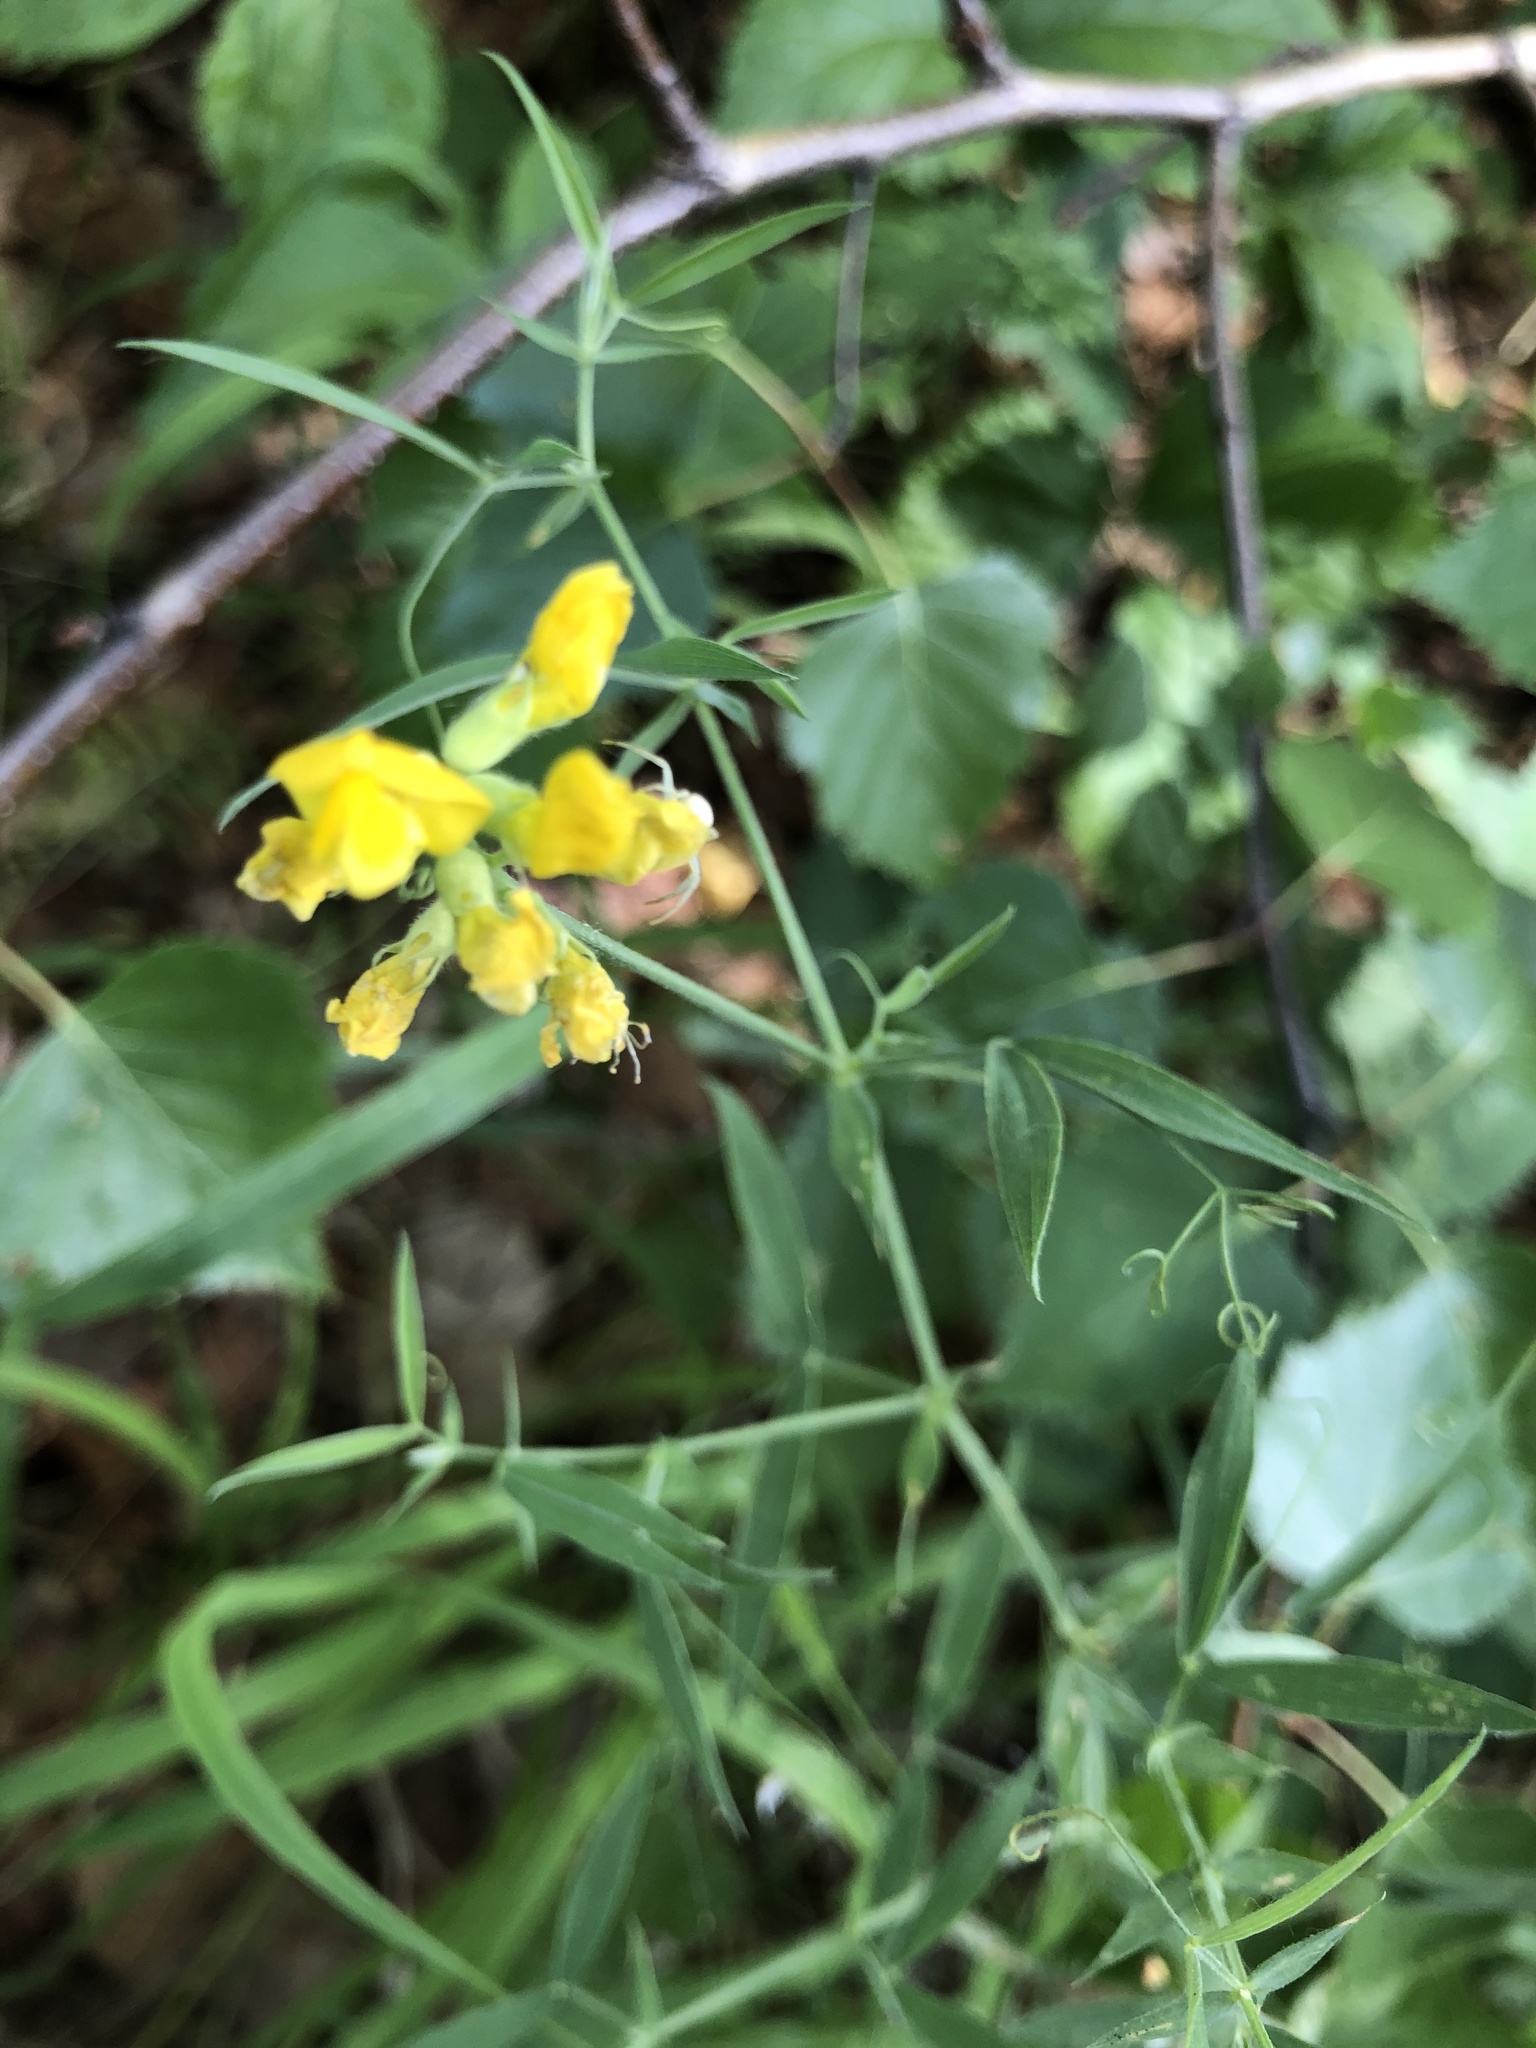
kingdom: Plantae
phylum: Tracheophyta
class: Magnoliopsida
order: Fabales
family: Fabaceae
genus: Lathyrus
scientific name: Lathyrus pratensis
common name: Meadow vetchling
